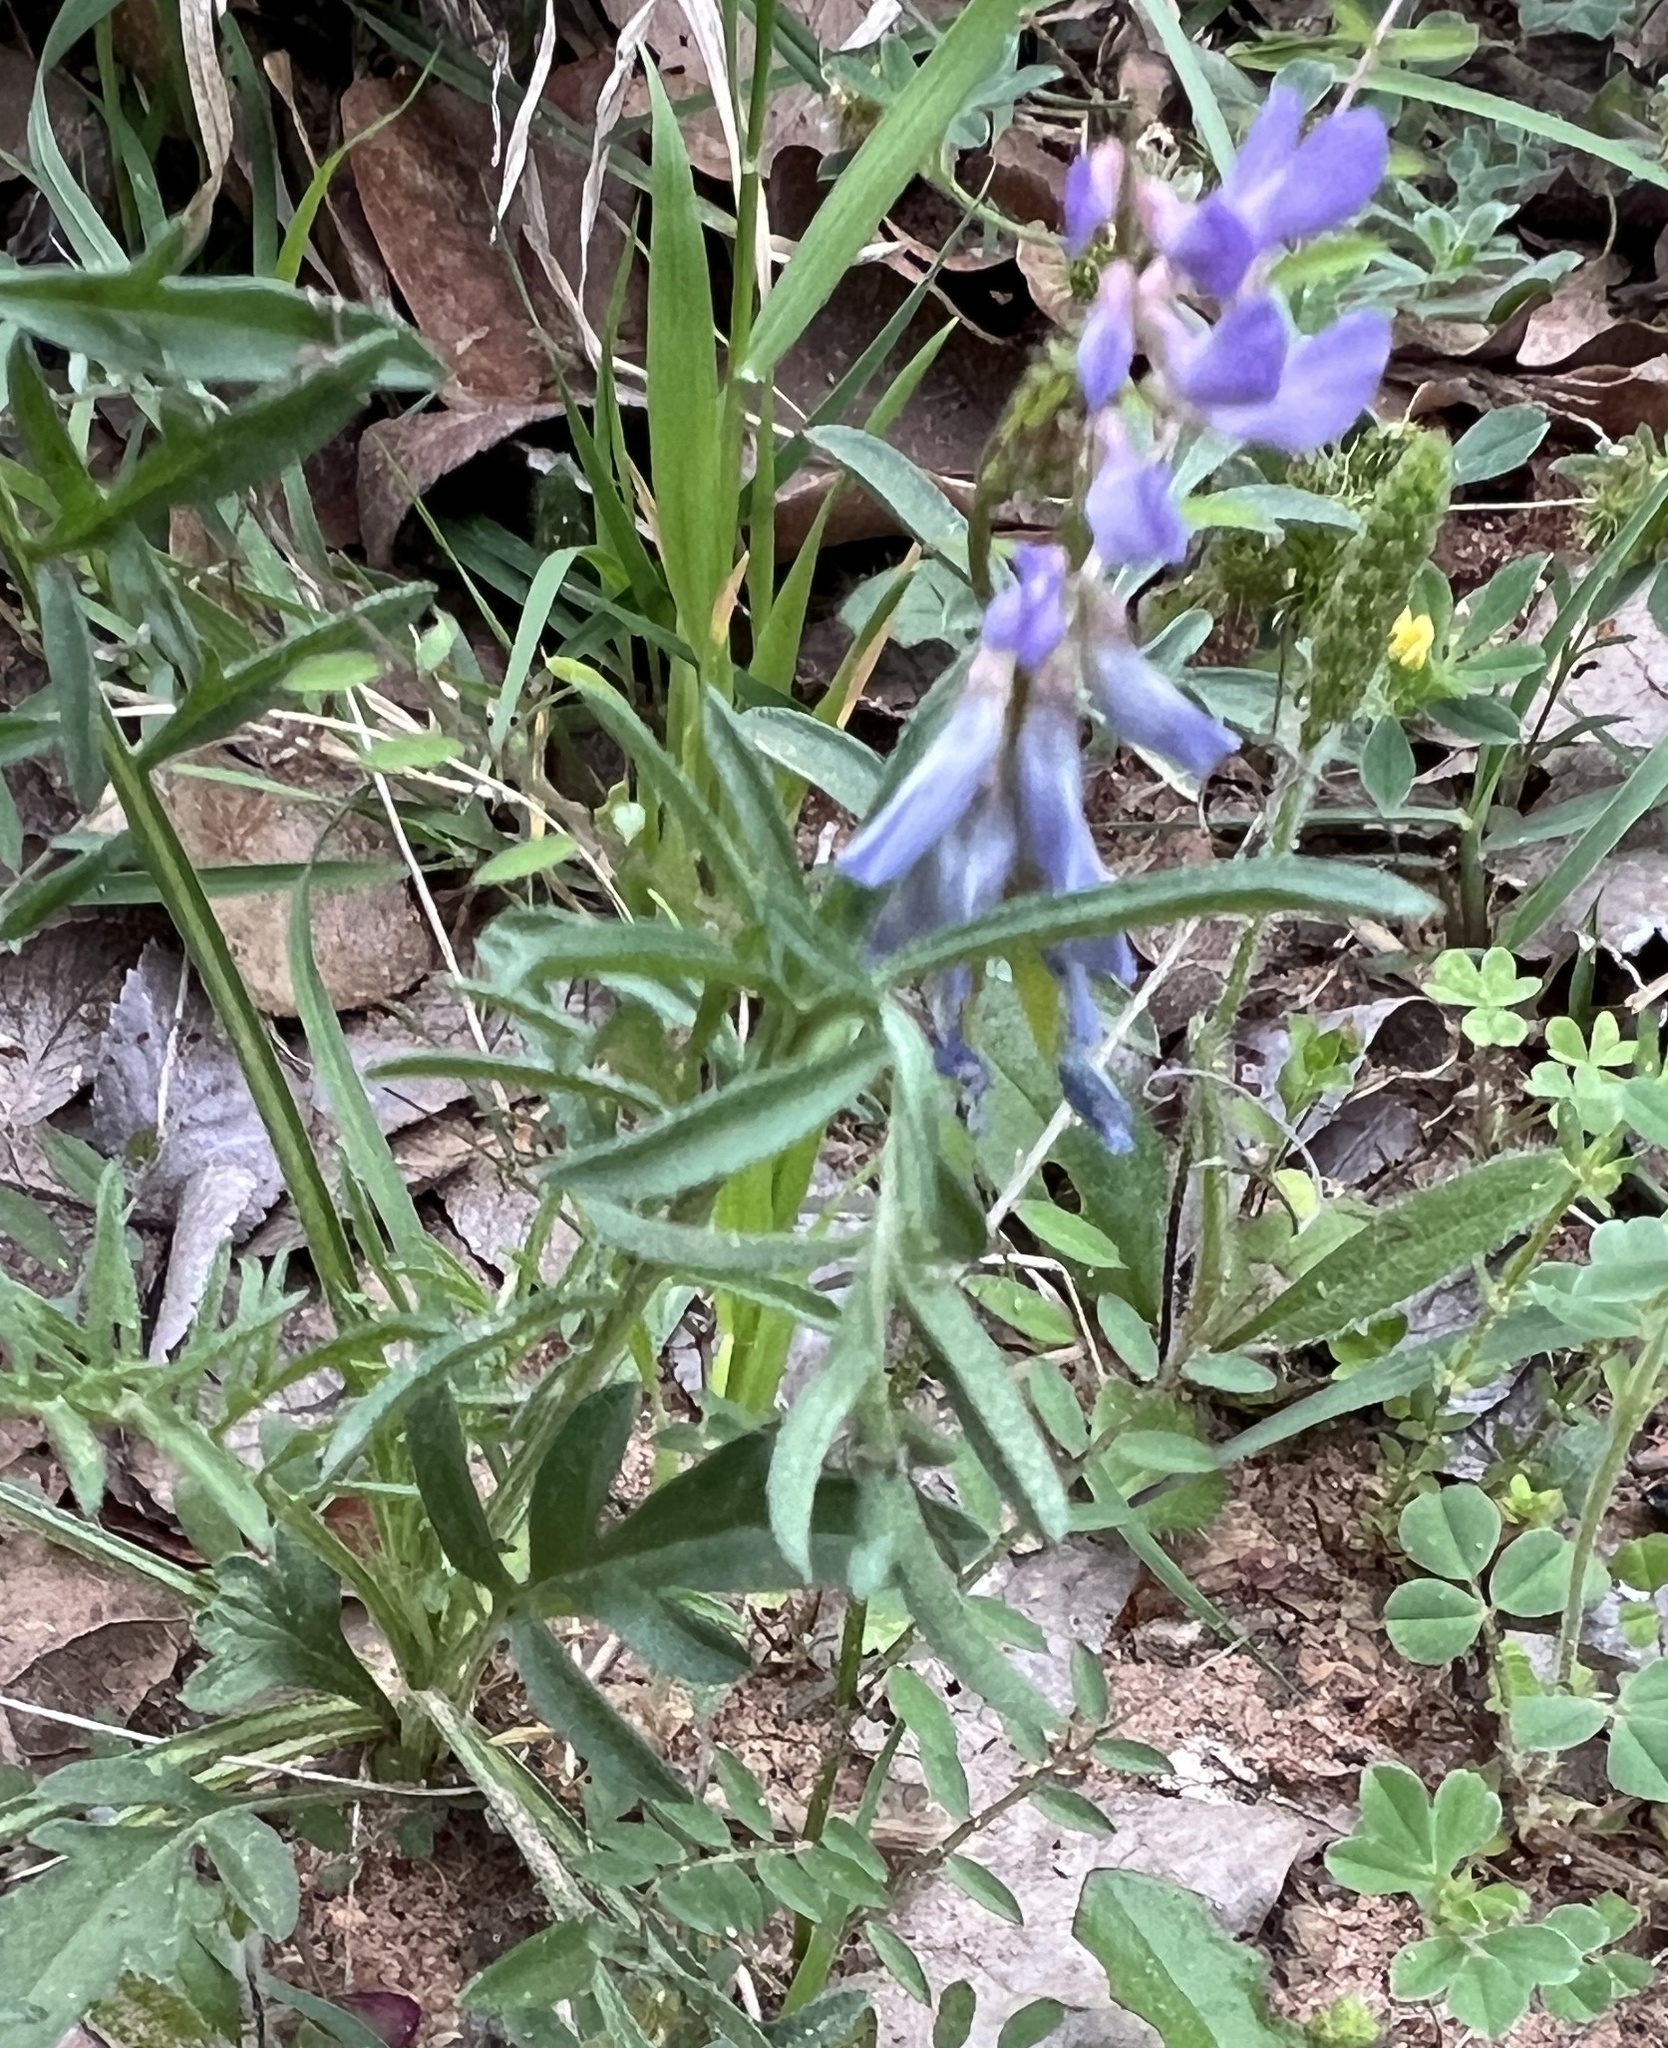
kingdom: Plantae
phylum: Tracheophyta
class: Magnoliopsida
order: Fabales
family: Fabaceae
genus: Vicia
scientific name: Vicia ludoviciana
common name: Louisiana vetch
